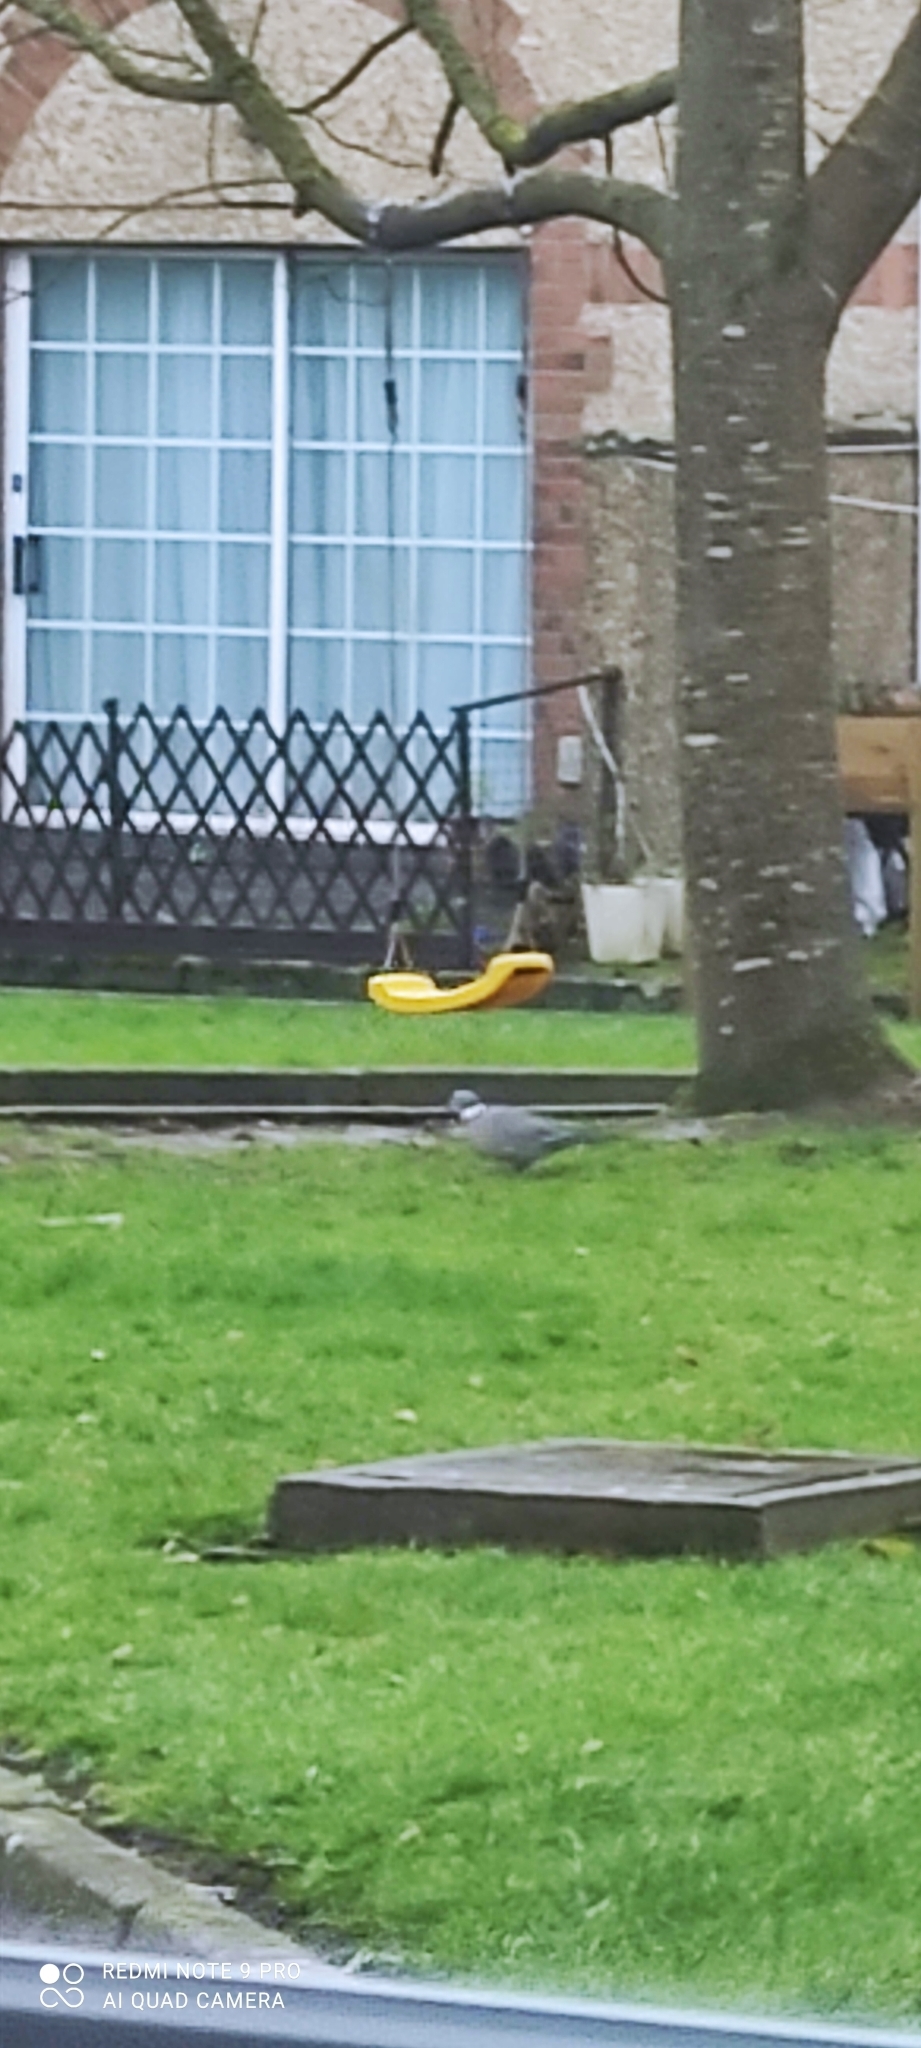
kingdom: Animalia
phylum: Chordata
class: Aves
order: Columbiformes
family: Columbidae
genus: Columba
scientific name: Columba palumbus
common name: Common wood pigeon
